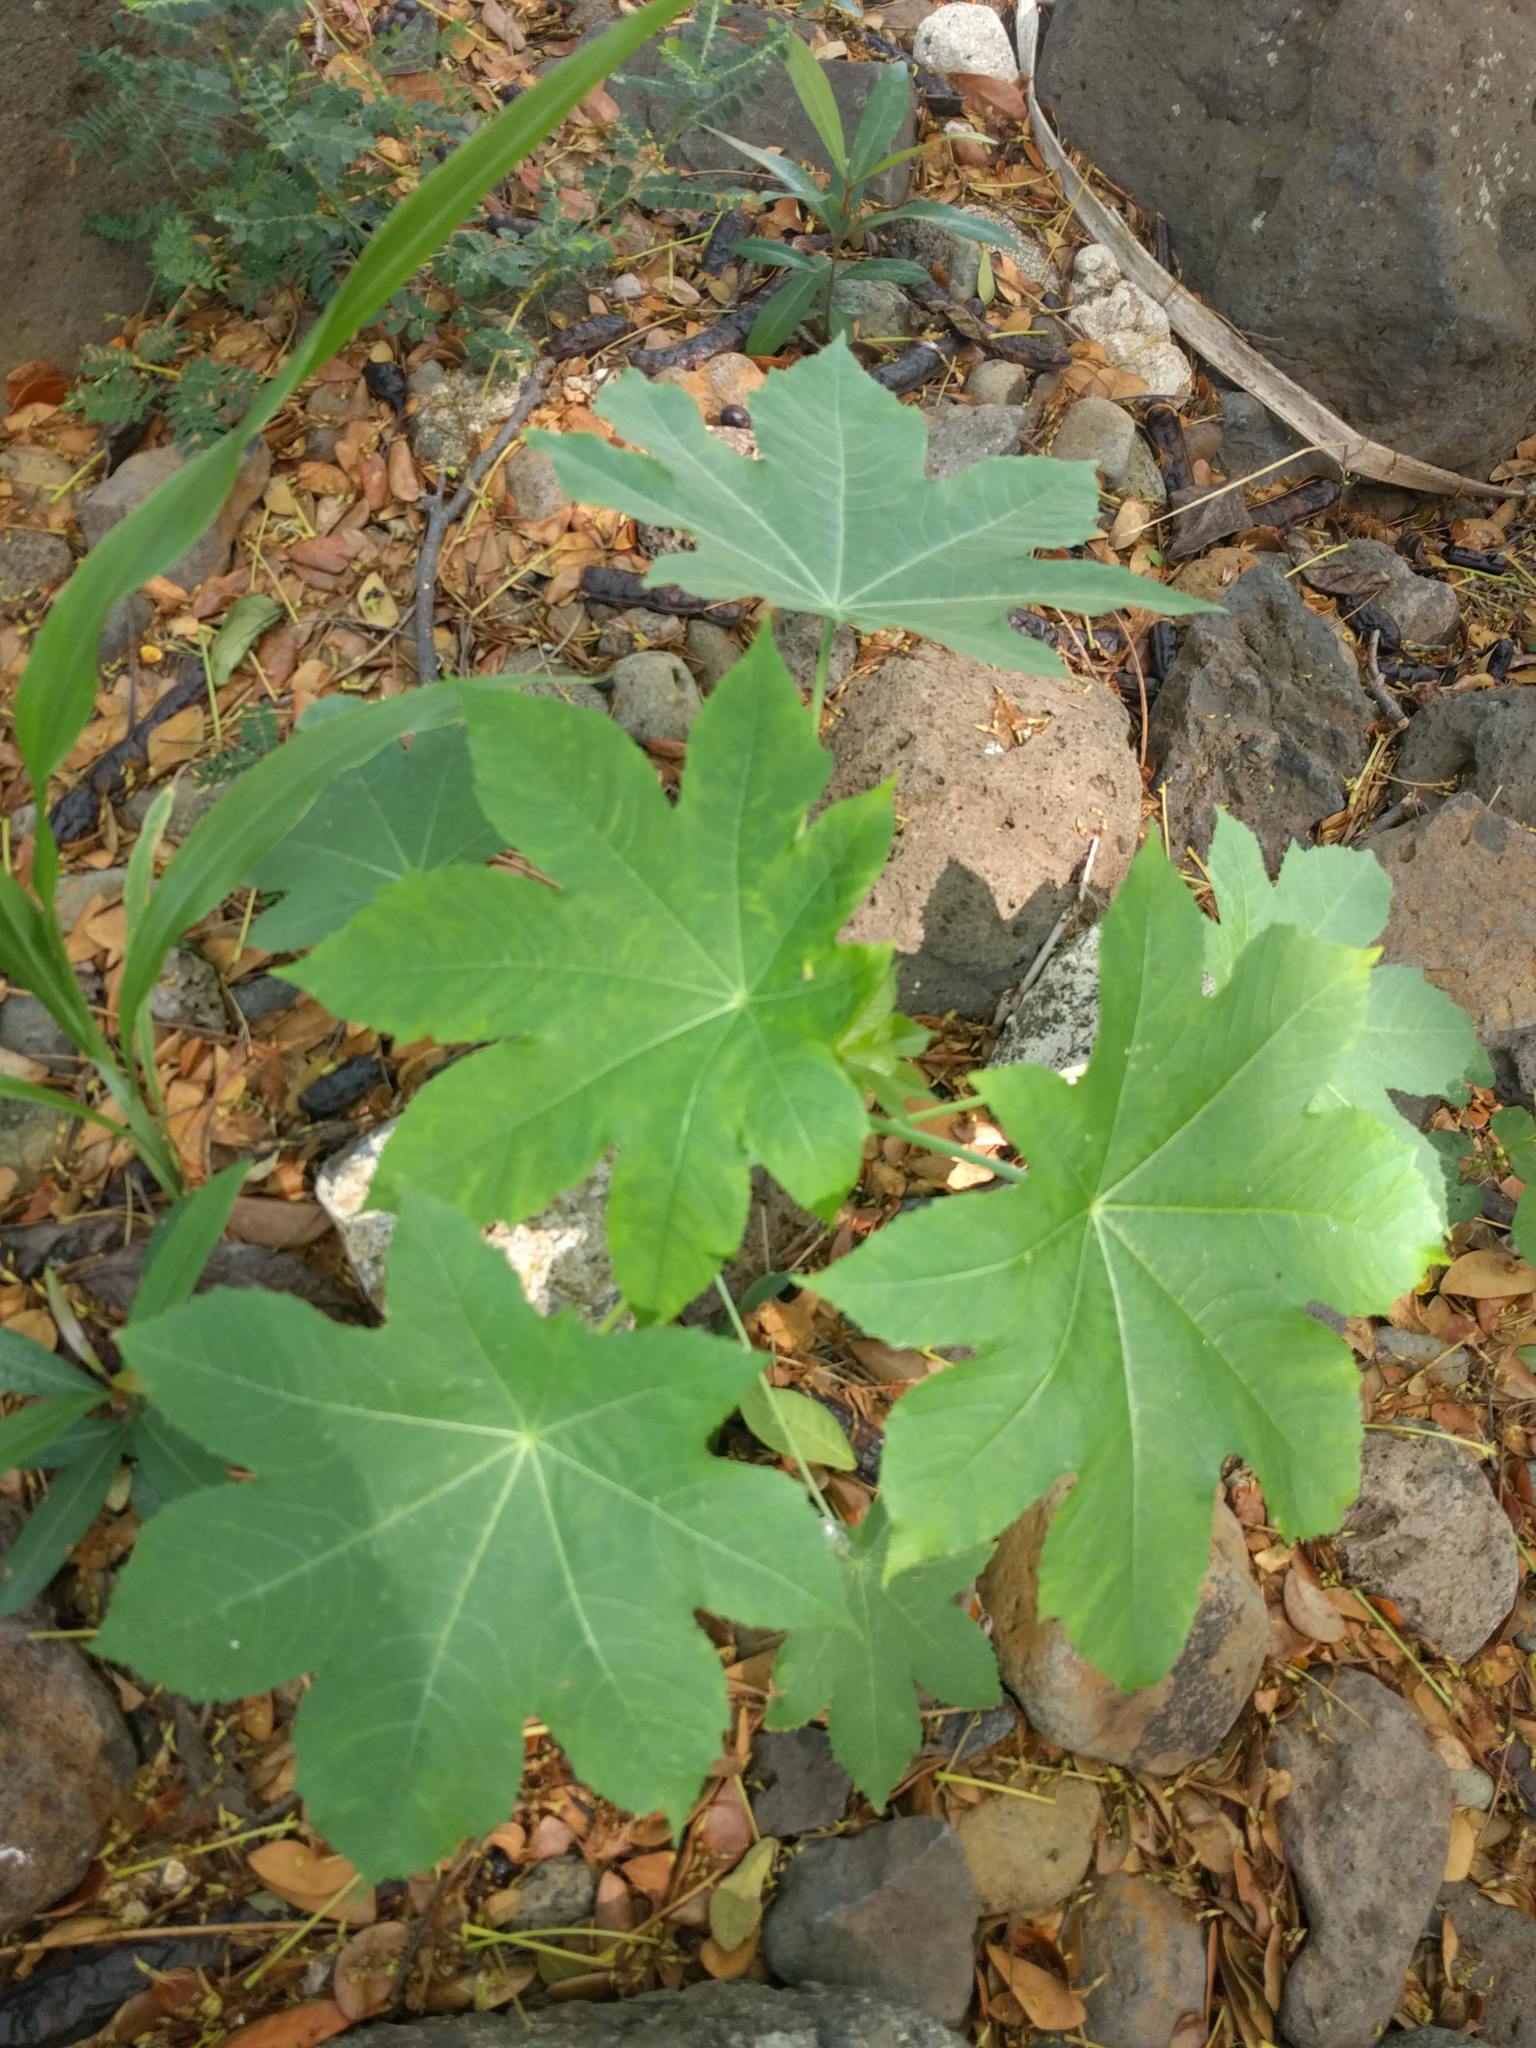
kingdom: Plantae
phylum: Tracheophyta
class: Magnoliopsida
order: Malpighiales
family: Euphorbiaceae
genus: Ricinus
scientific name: Ricinus communis
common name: Castor-oil-plant
